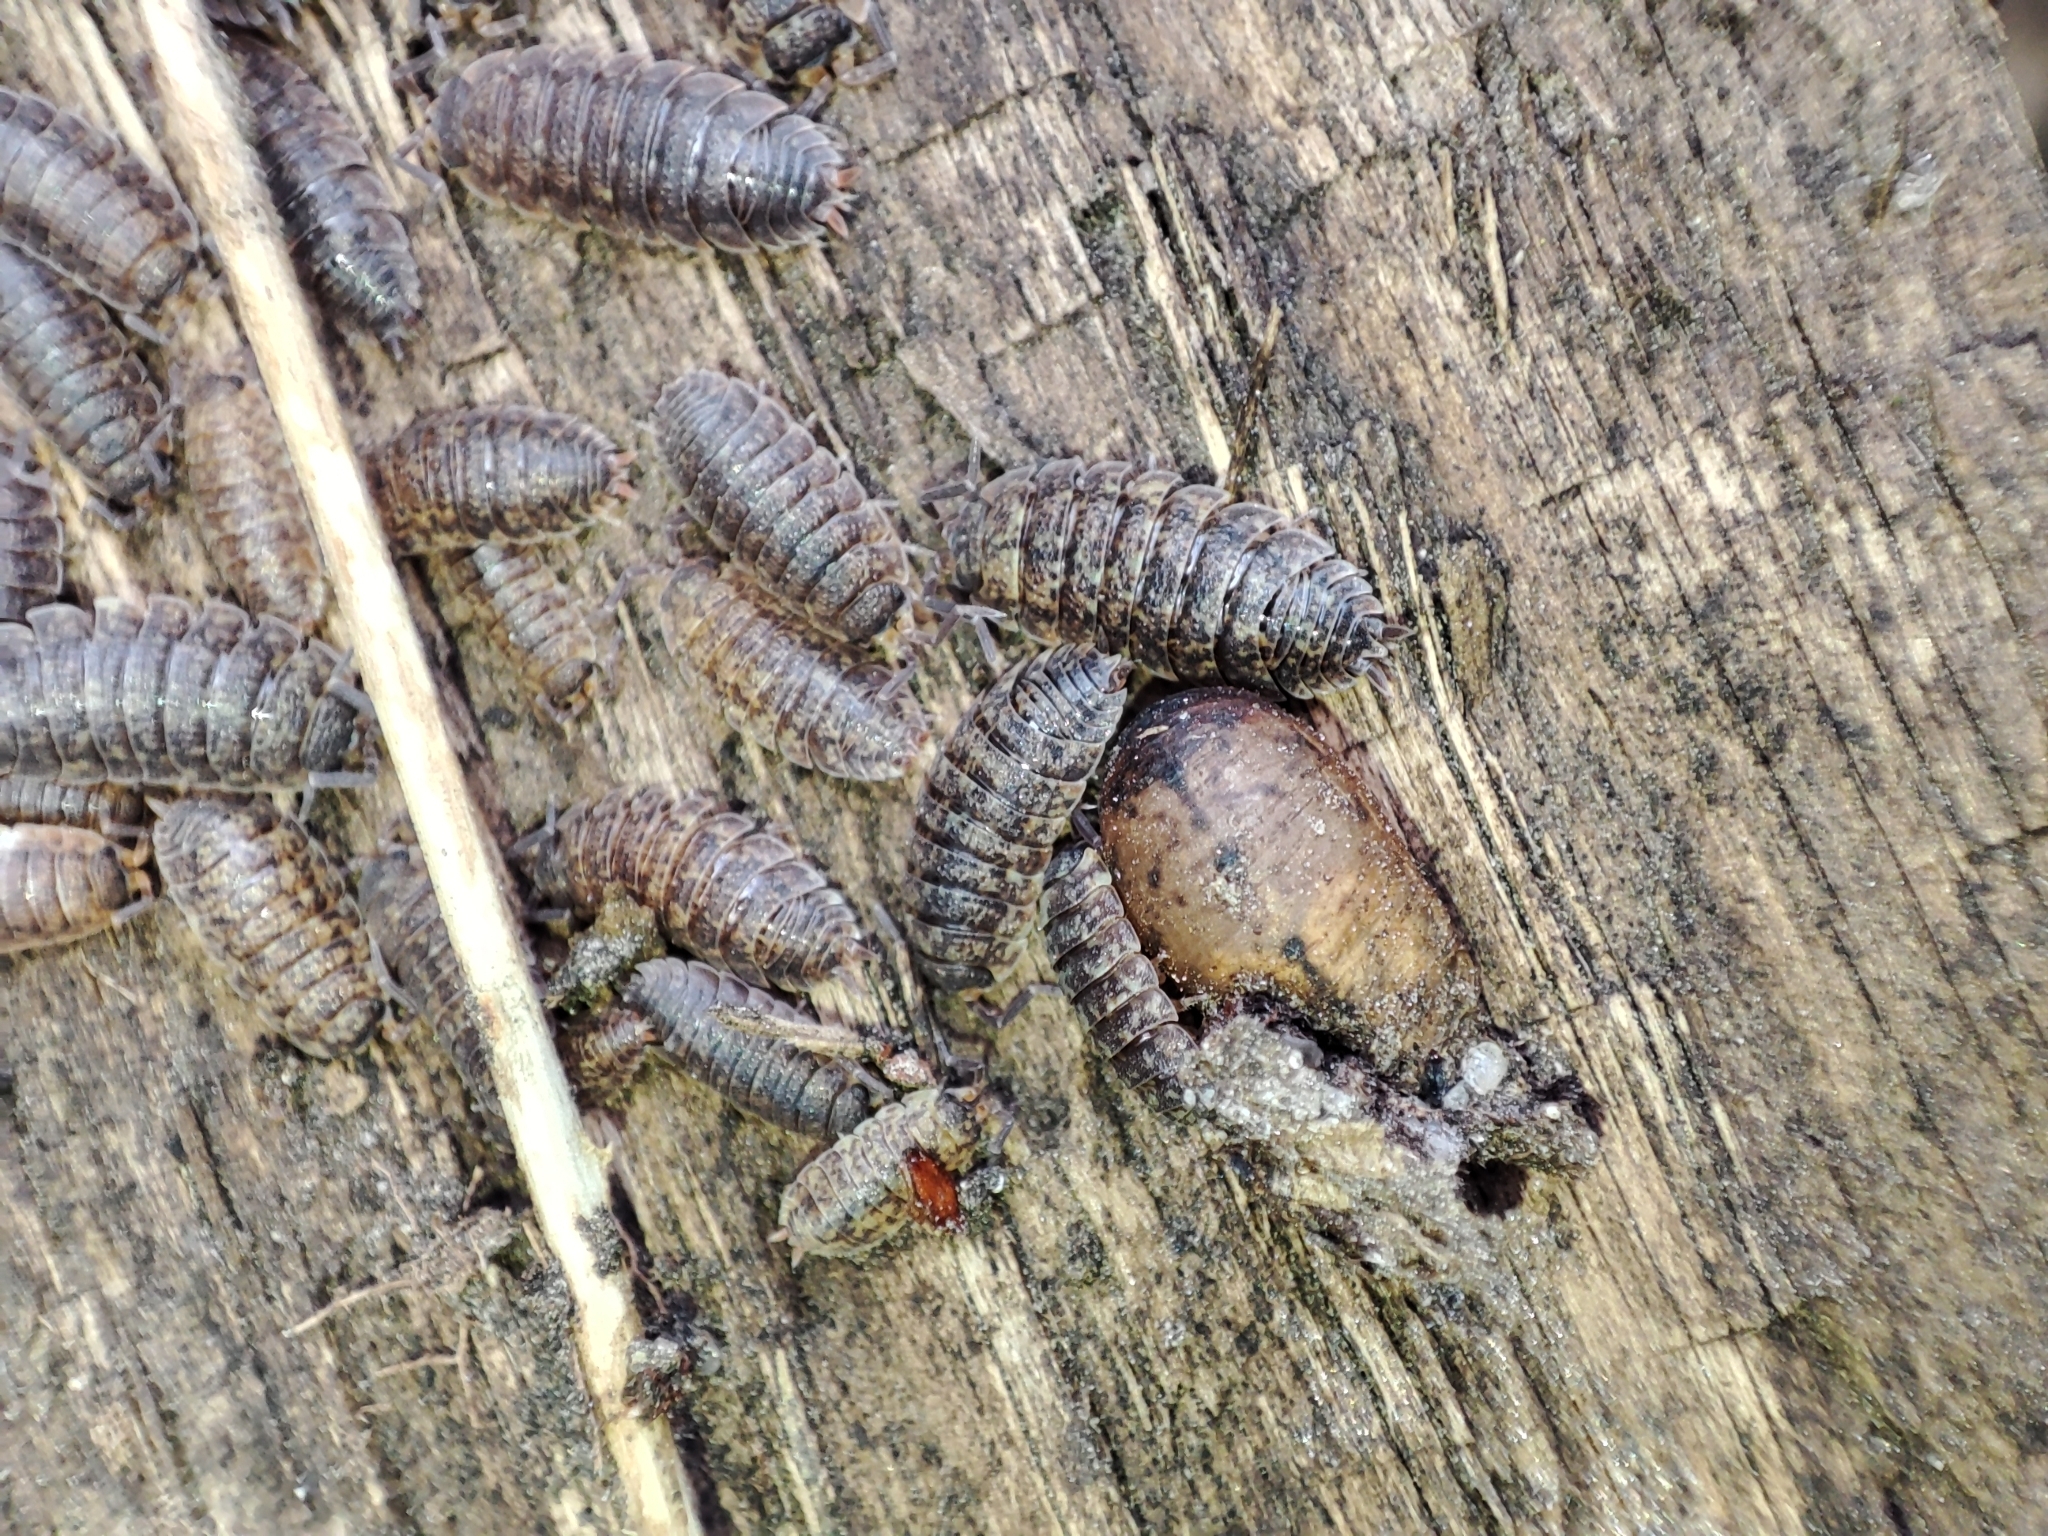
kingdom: Animalia
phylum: Arthropoda
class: Malacostraca
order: Isopoda
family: Porcellionidae
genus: Porcellio
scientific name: Porcellio scaber
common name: Common rough woodlouse
